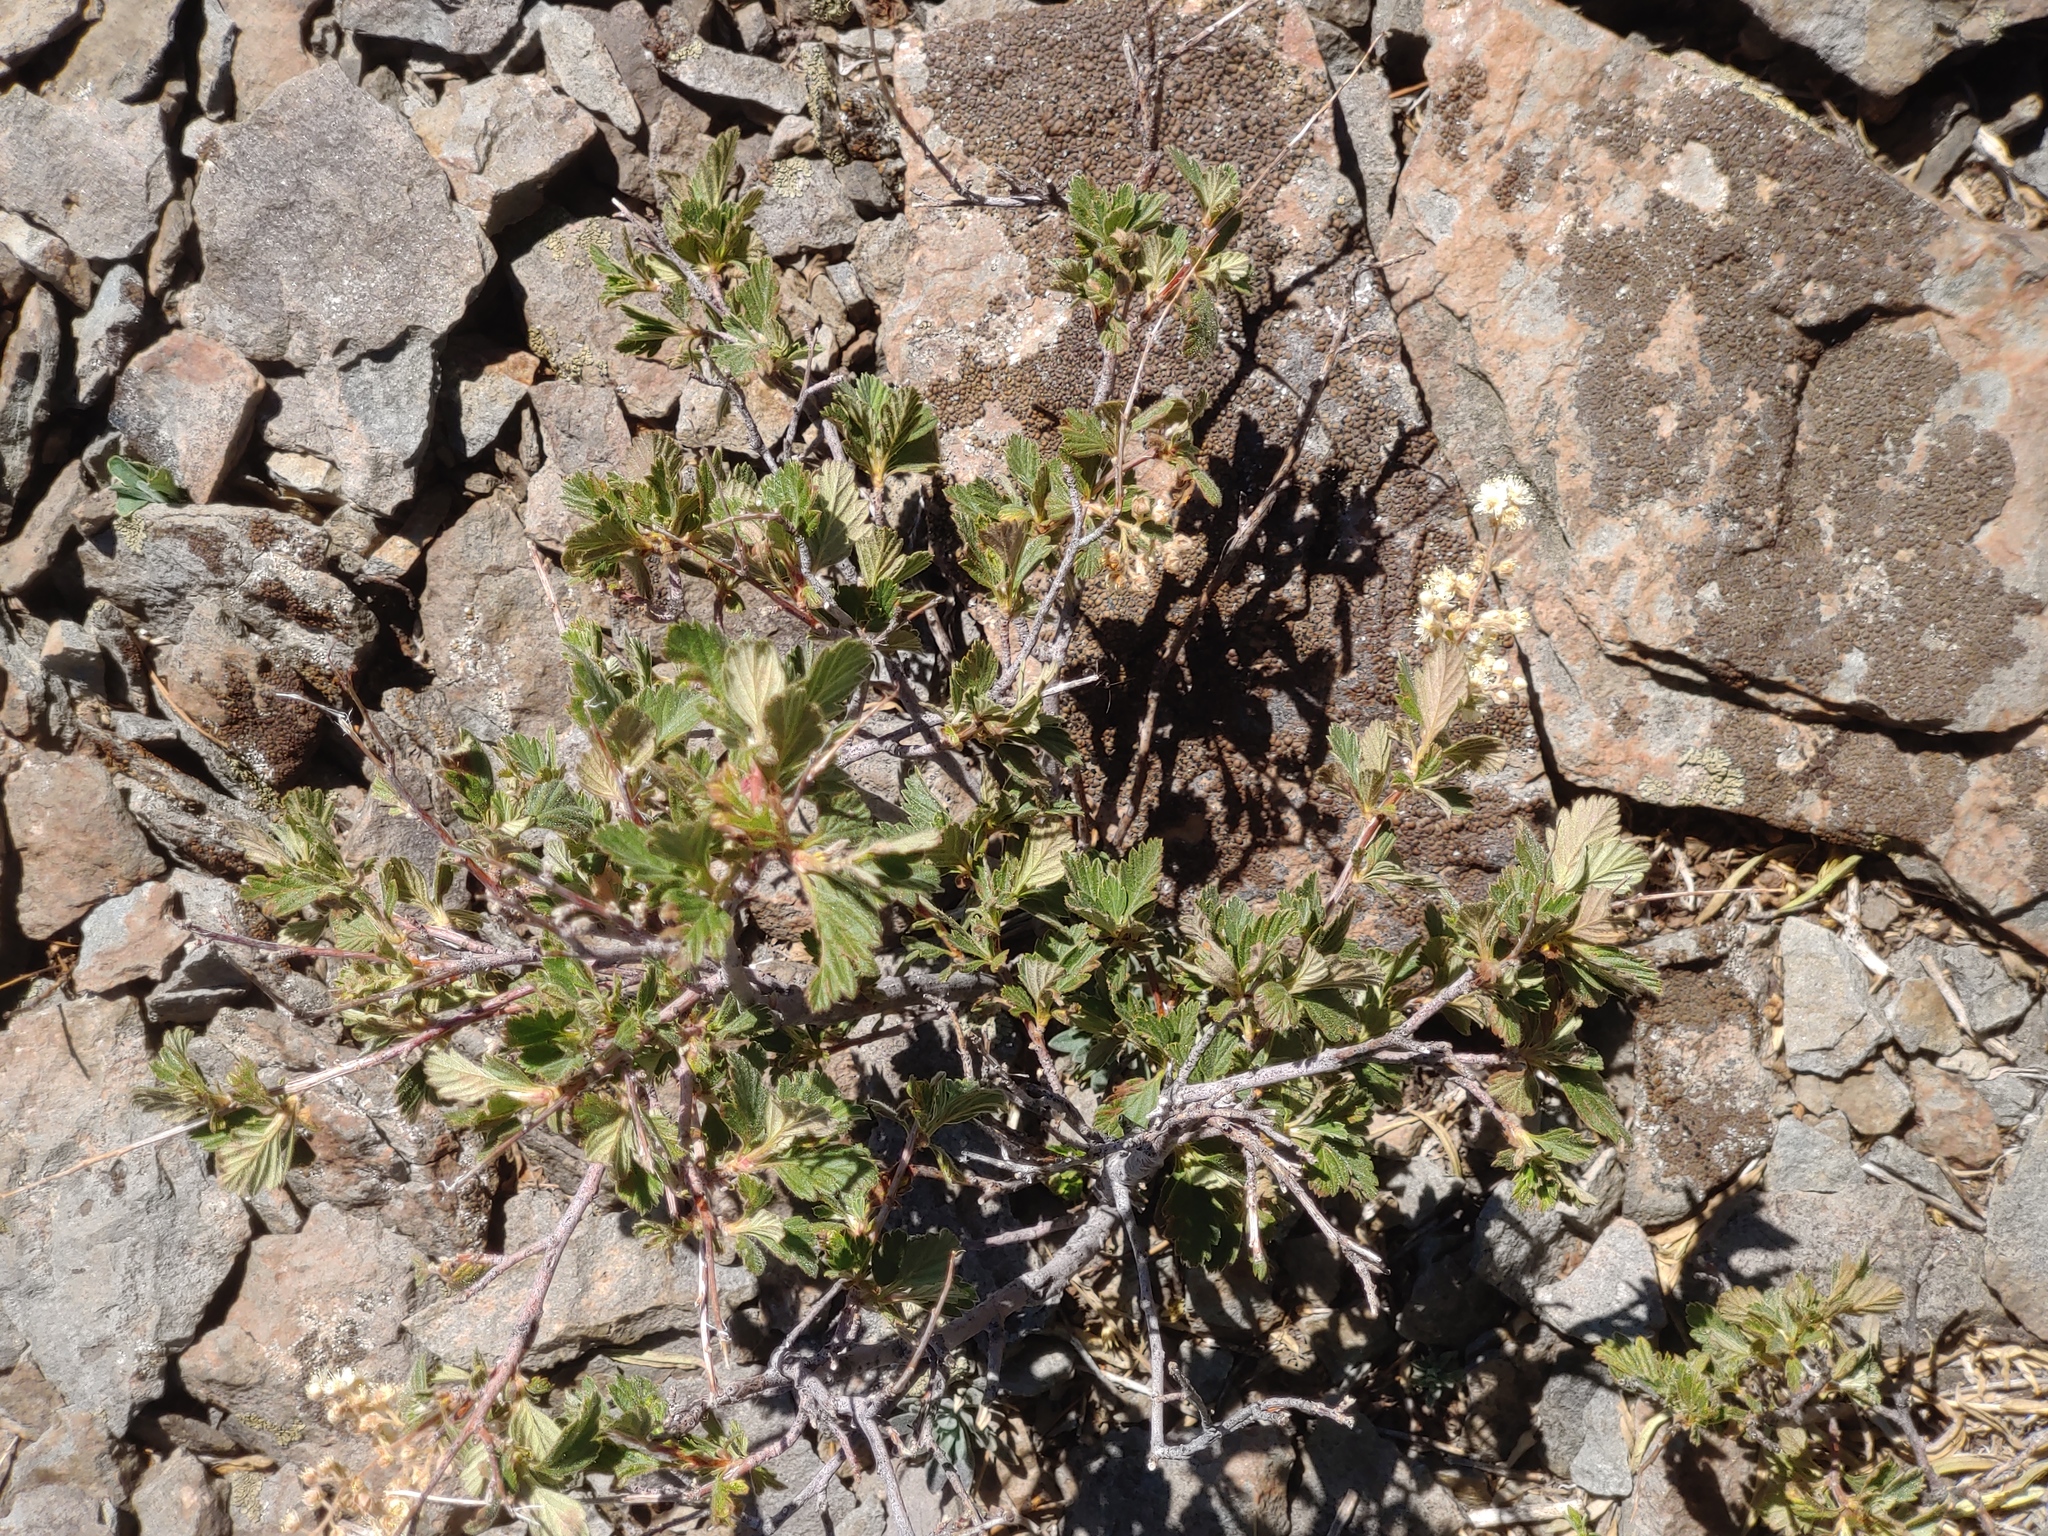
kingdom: Plantae
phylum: Tracheophyta
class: Magnoliopsida
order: Rosales
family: Rosaceae
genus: Holodiscus
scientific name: Holodiscus discolor
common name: Oceanspray
